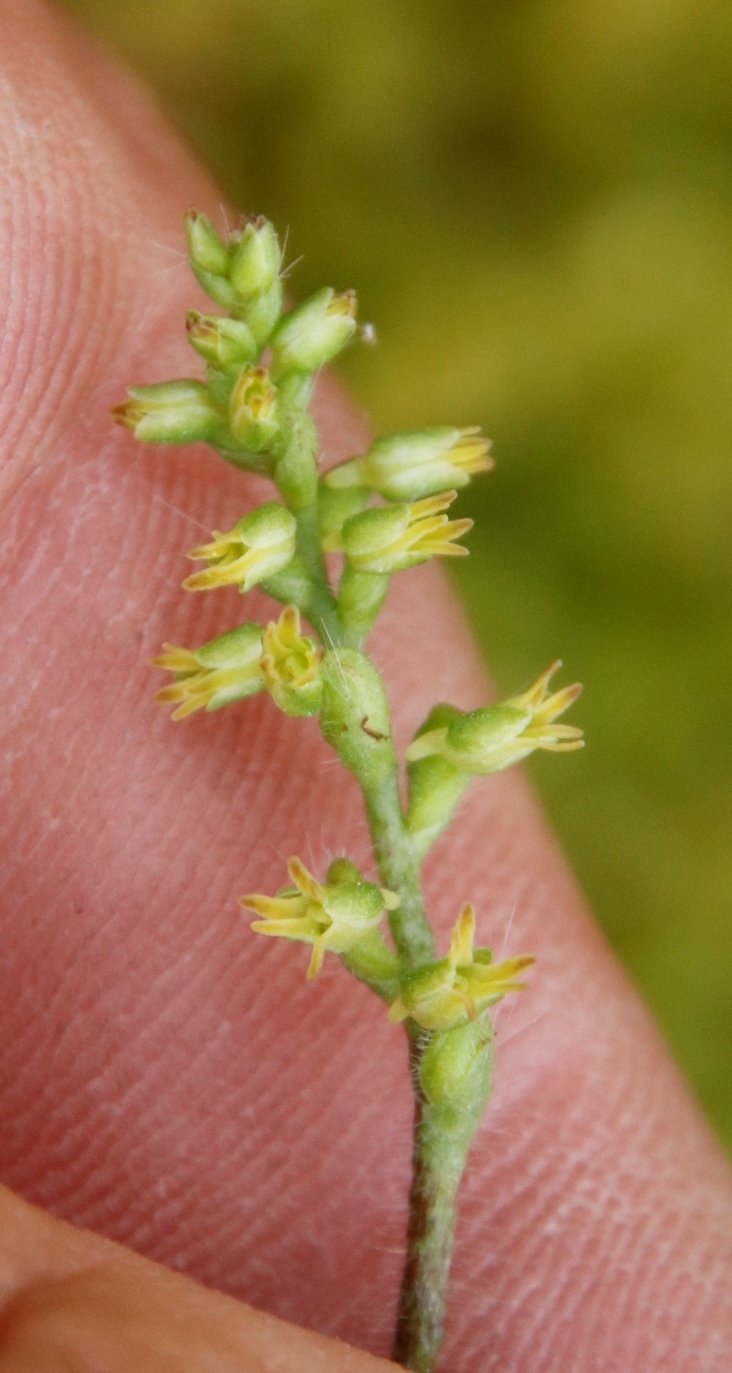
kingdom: Plantae
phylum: Tracheophyta
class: Liliopsida
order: Asparagales
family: Orchidaceae
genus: Holothrix
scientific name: Holothrix villosa
